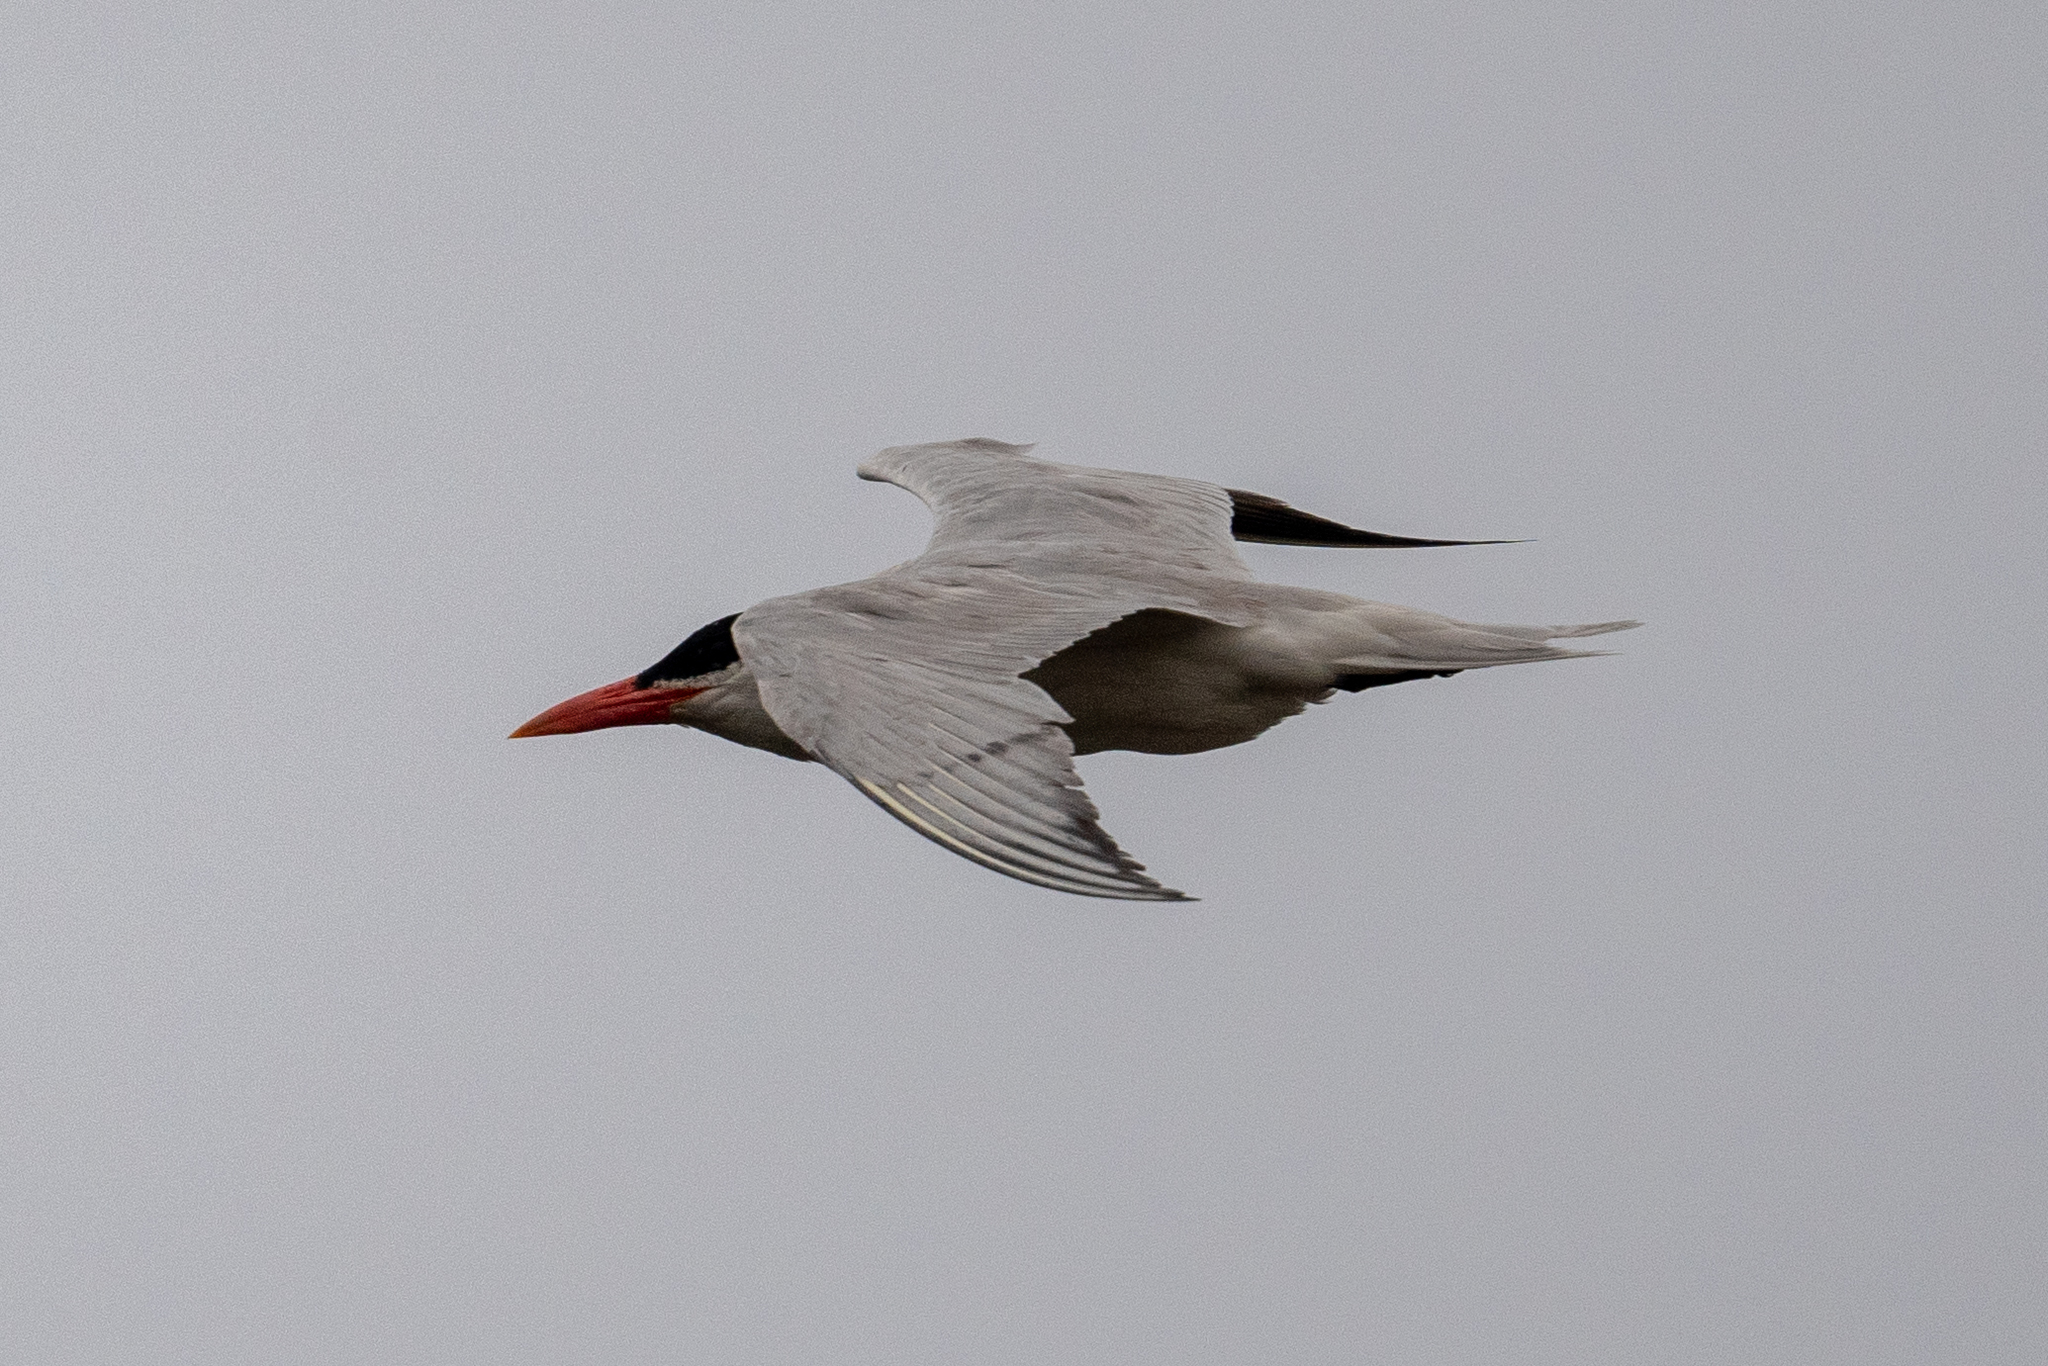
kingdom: Animalia
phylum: Chordata
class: Aves
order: Charadriiformes
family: Laridae
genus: Hydroprogne
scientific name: Hydroprogne caspia
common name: Caspian tern
